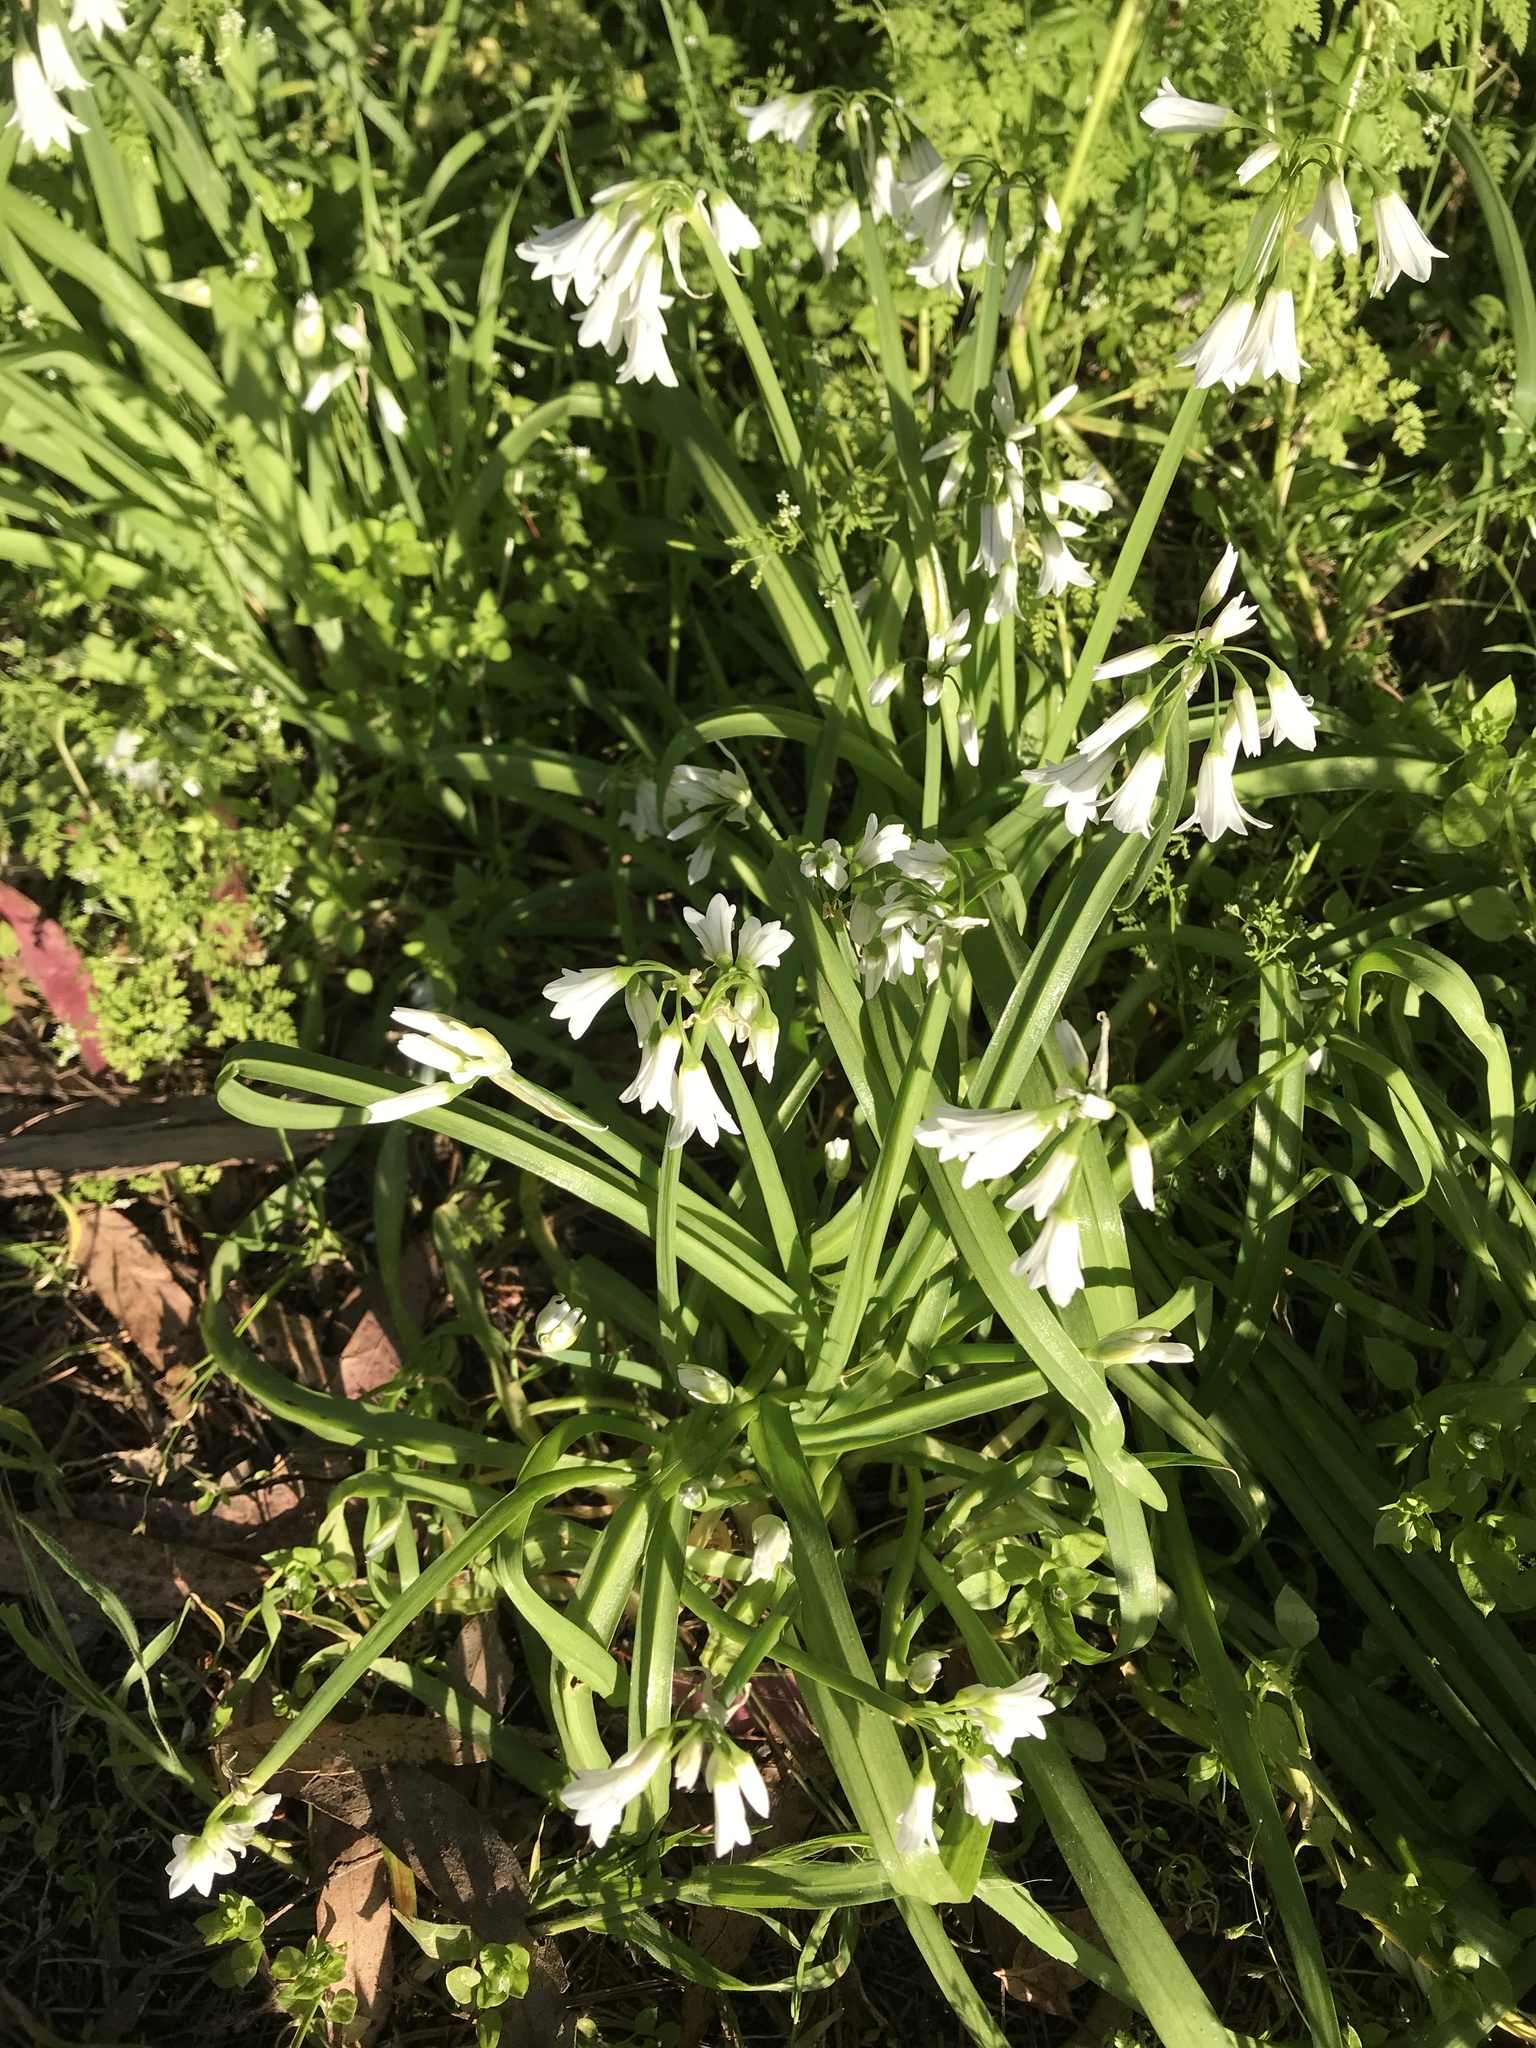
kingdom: Plantae
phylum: Tracheophyta
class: Liliopsida
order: Asparagales
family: Amaryllidaceae
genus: Allium
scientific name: Allium triquetrum
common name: Three-cornered garlic
